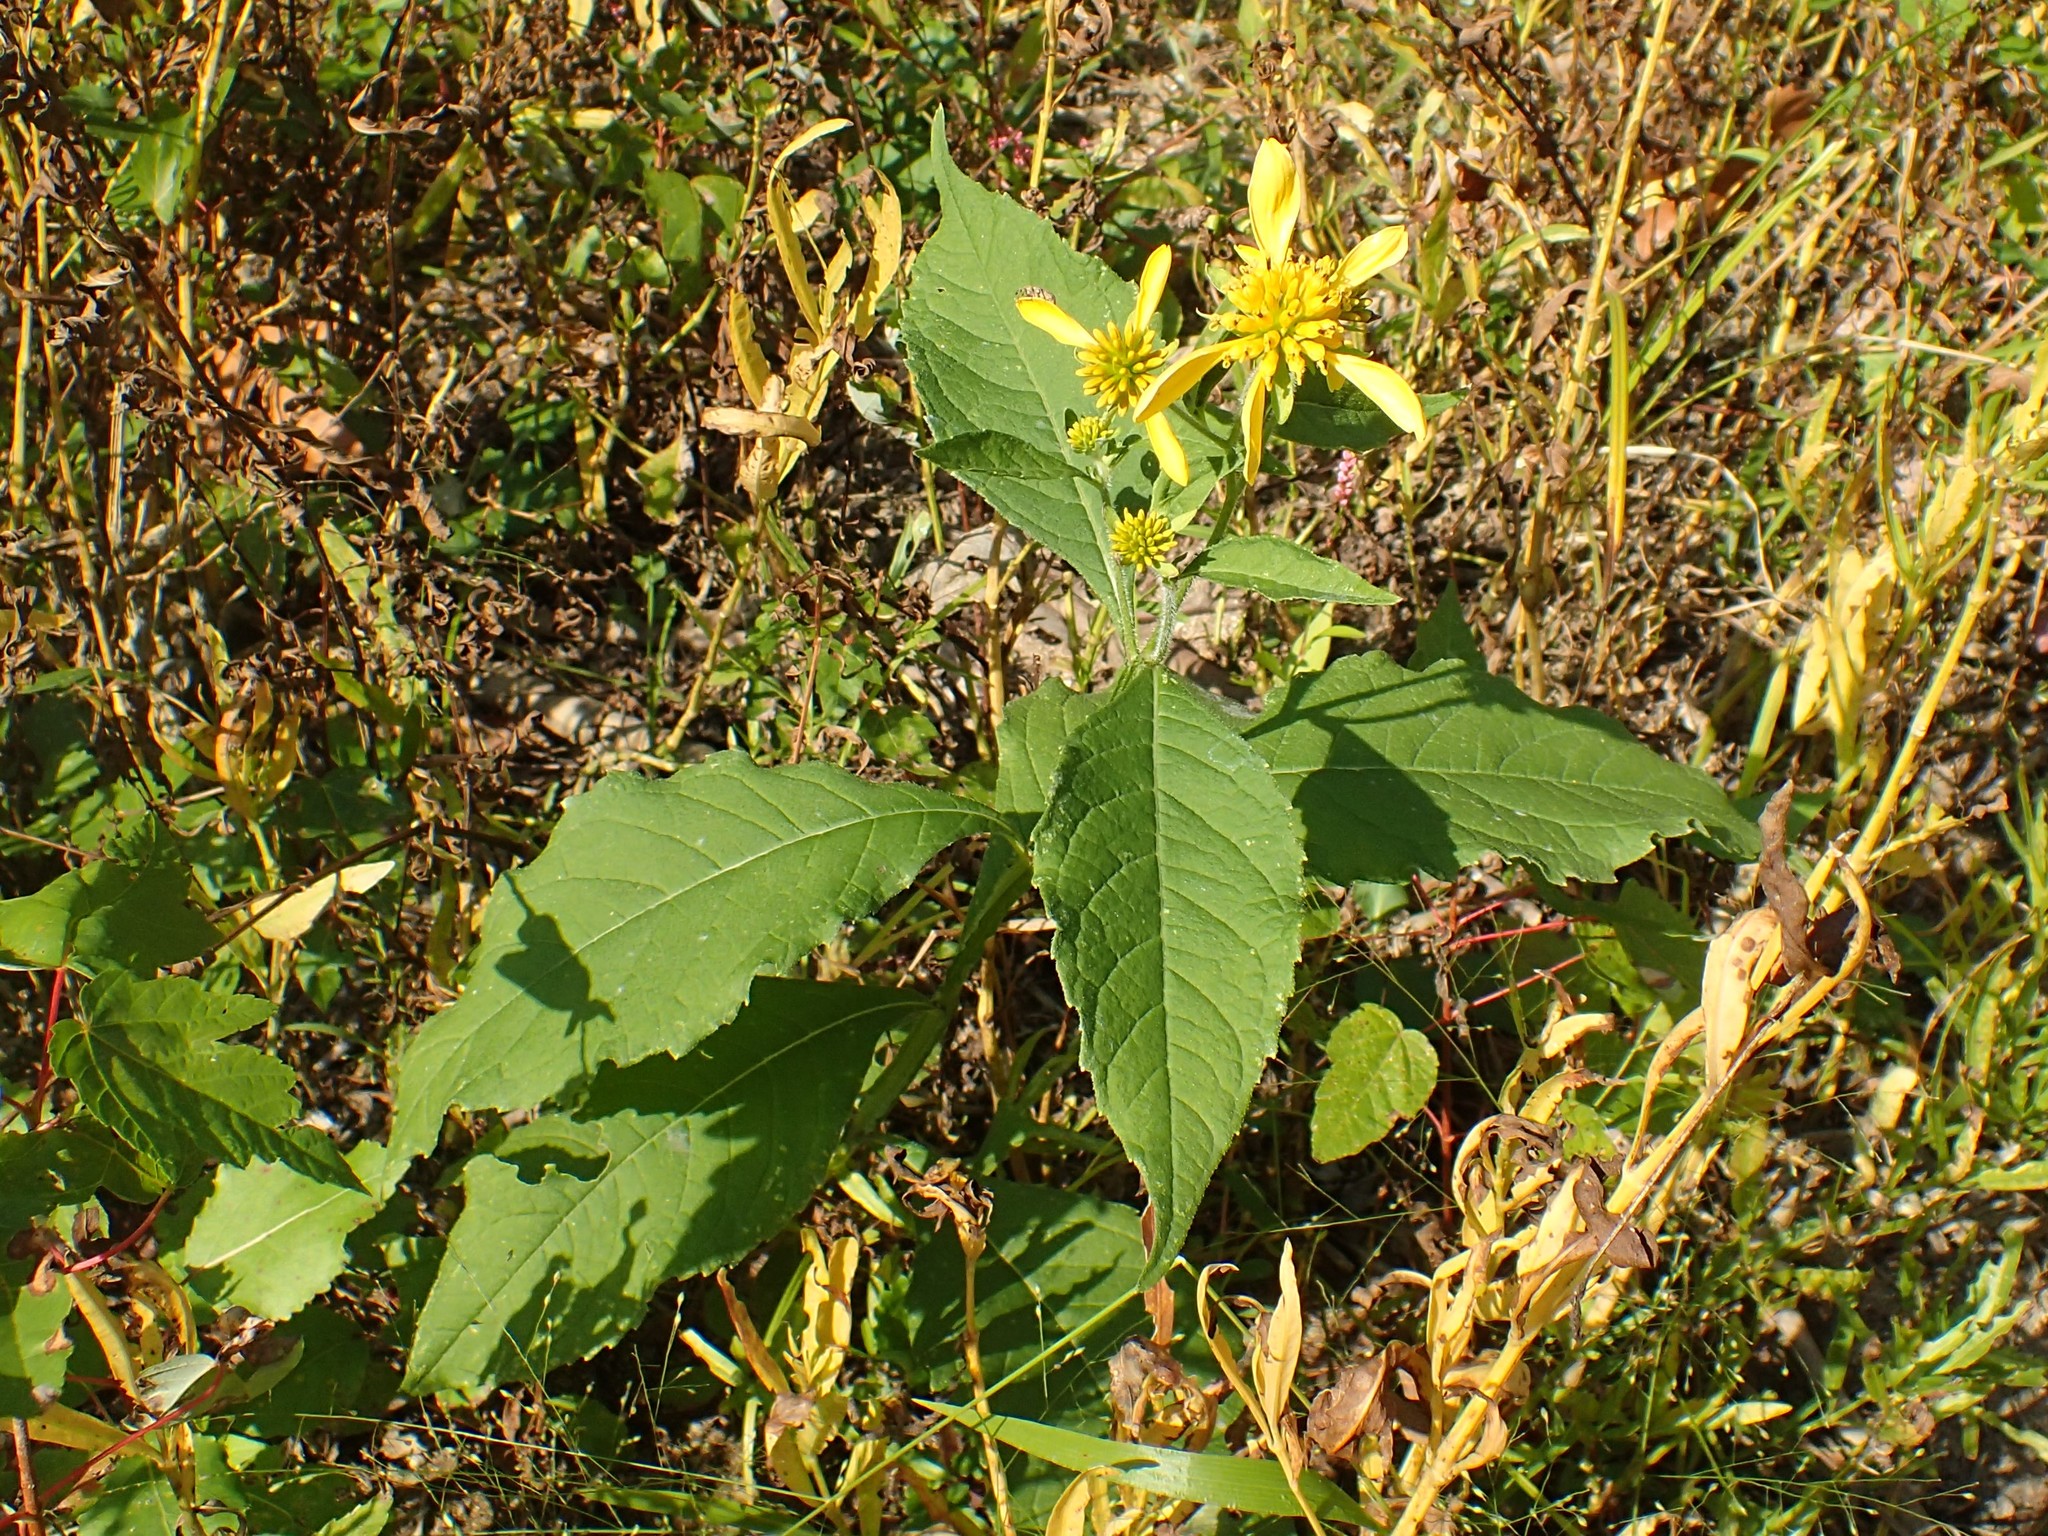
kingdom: Plantae
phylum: Tracheophyta
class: Magnoliopsida
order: Asterales
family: Asteraceae
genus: Verbesina
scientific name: Verbesina alternifolia
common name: Wingstem
